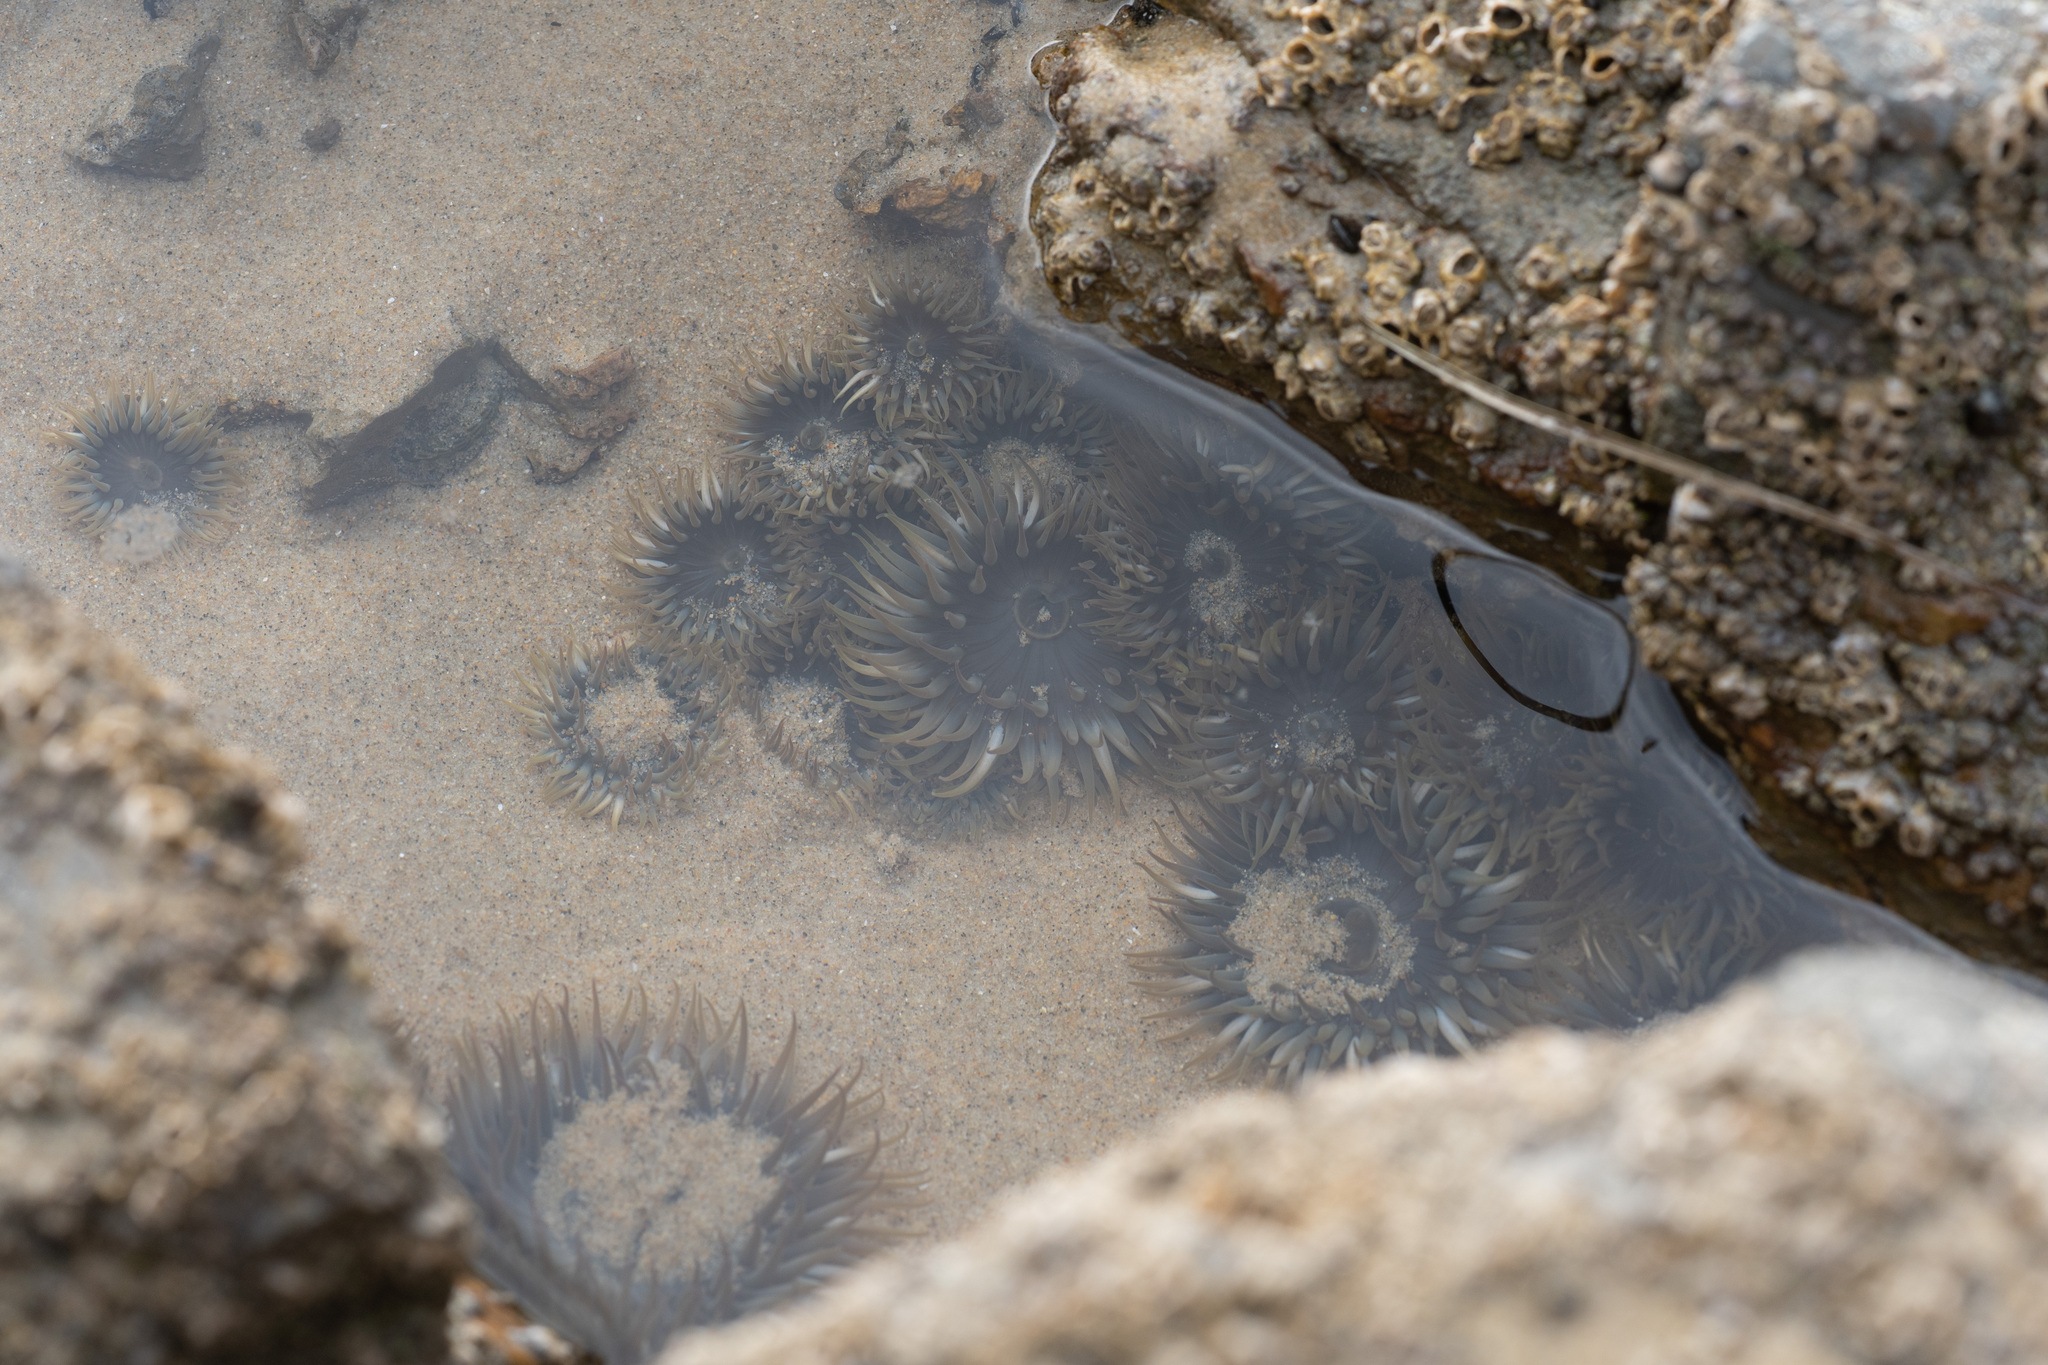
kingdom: Animalia
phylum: Cnidaria
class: Anthozoa
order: Actiniaria
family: Actiniidae
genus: Anthopleura
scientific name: Anthopleura elegantissima
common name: Clonal anemone
